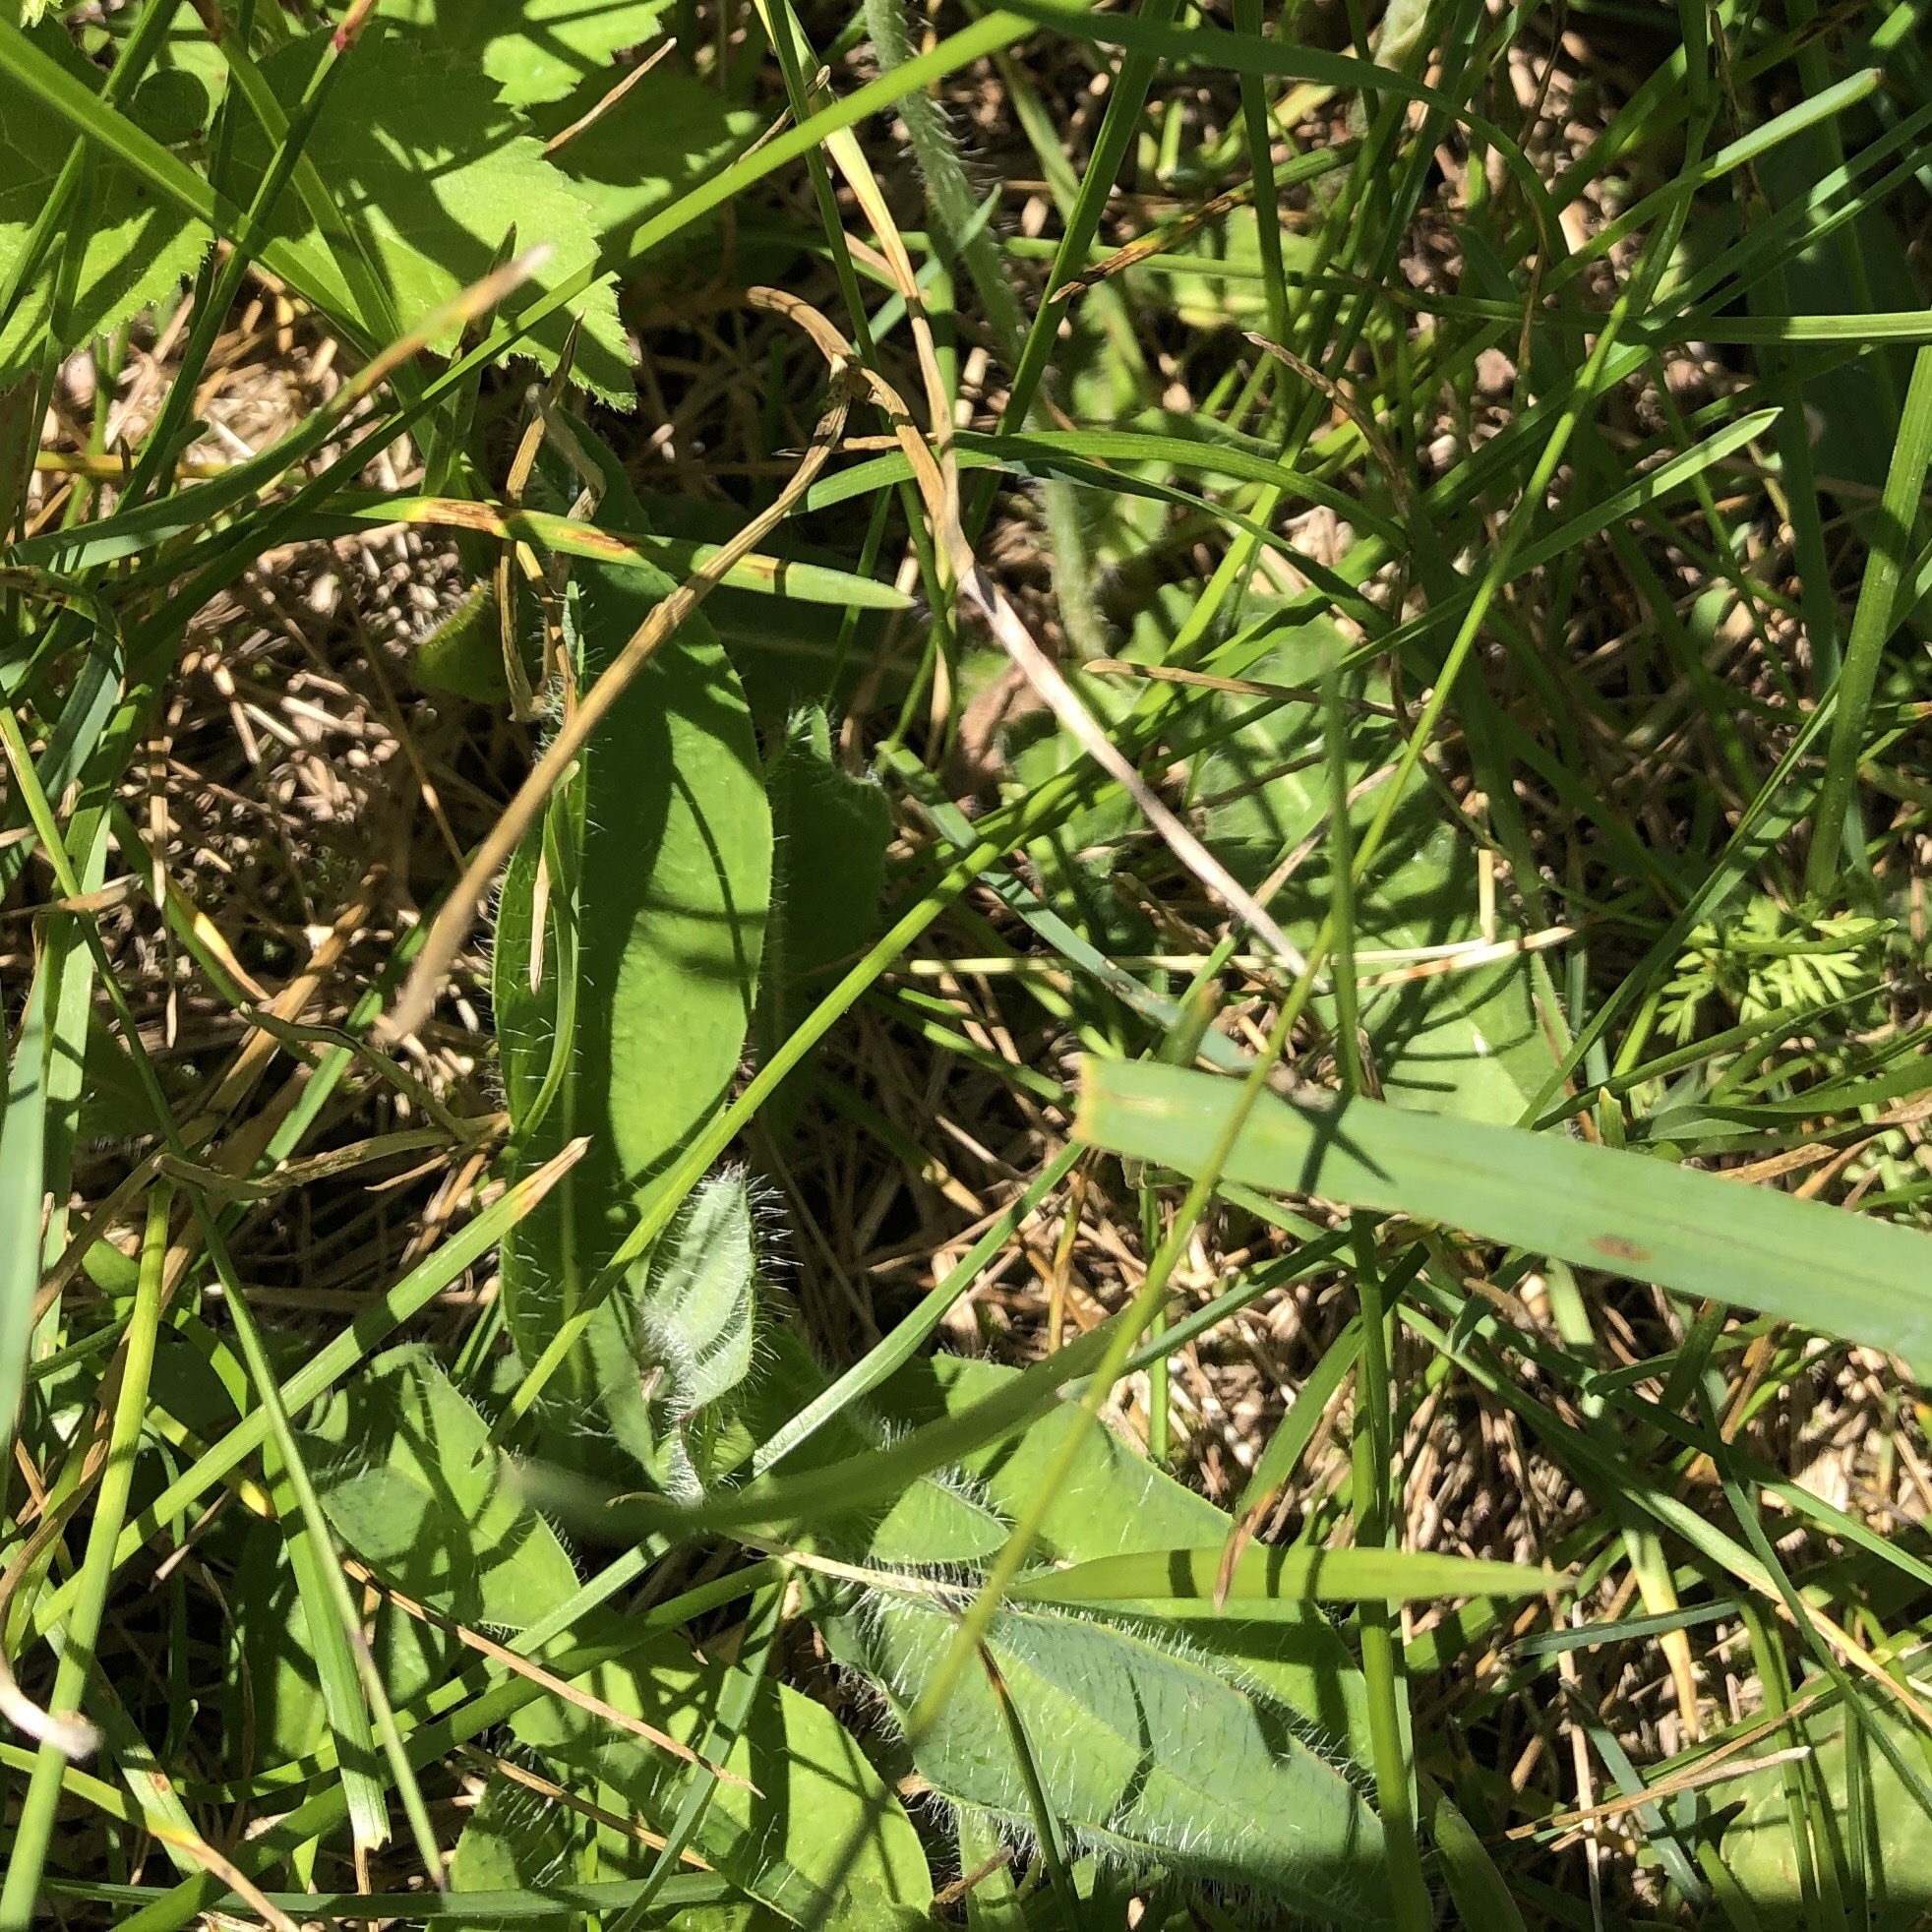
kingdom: Plantae
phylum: Tracheophyta
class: Magnoliopsida
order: Asterales
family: Asteraceae
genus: Pilosella
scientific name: Pilosella aurantiaca
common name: Fox-and-cubs
